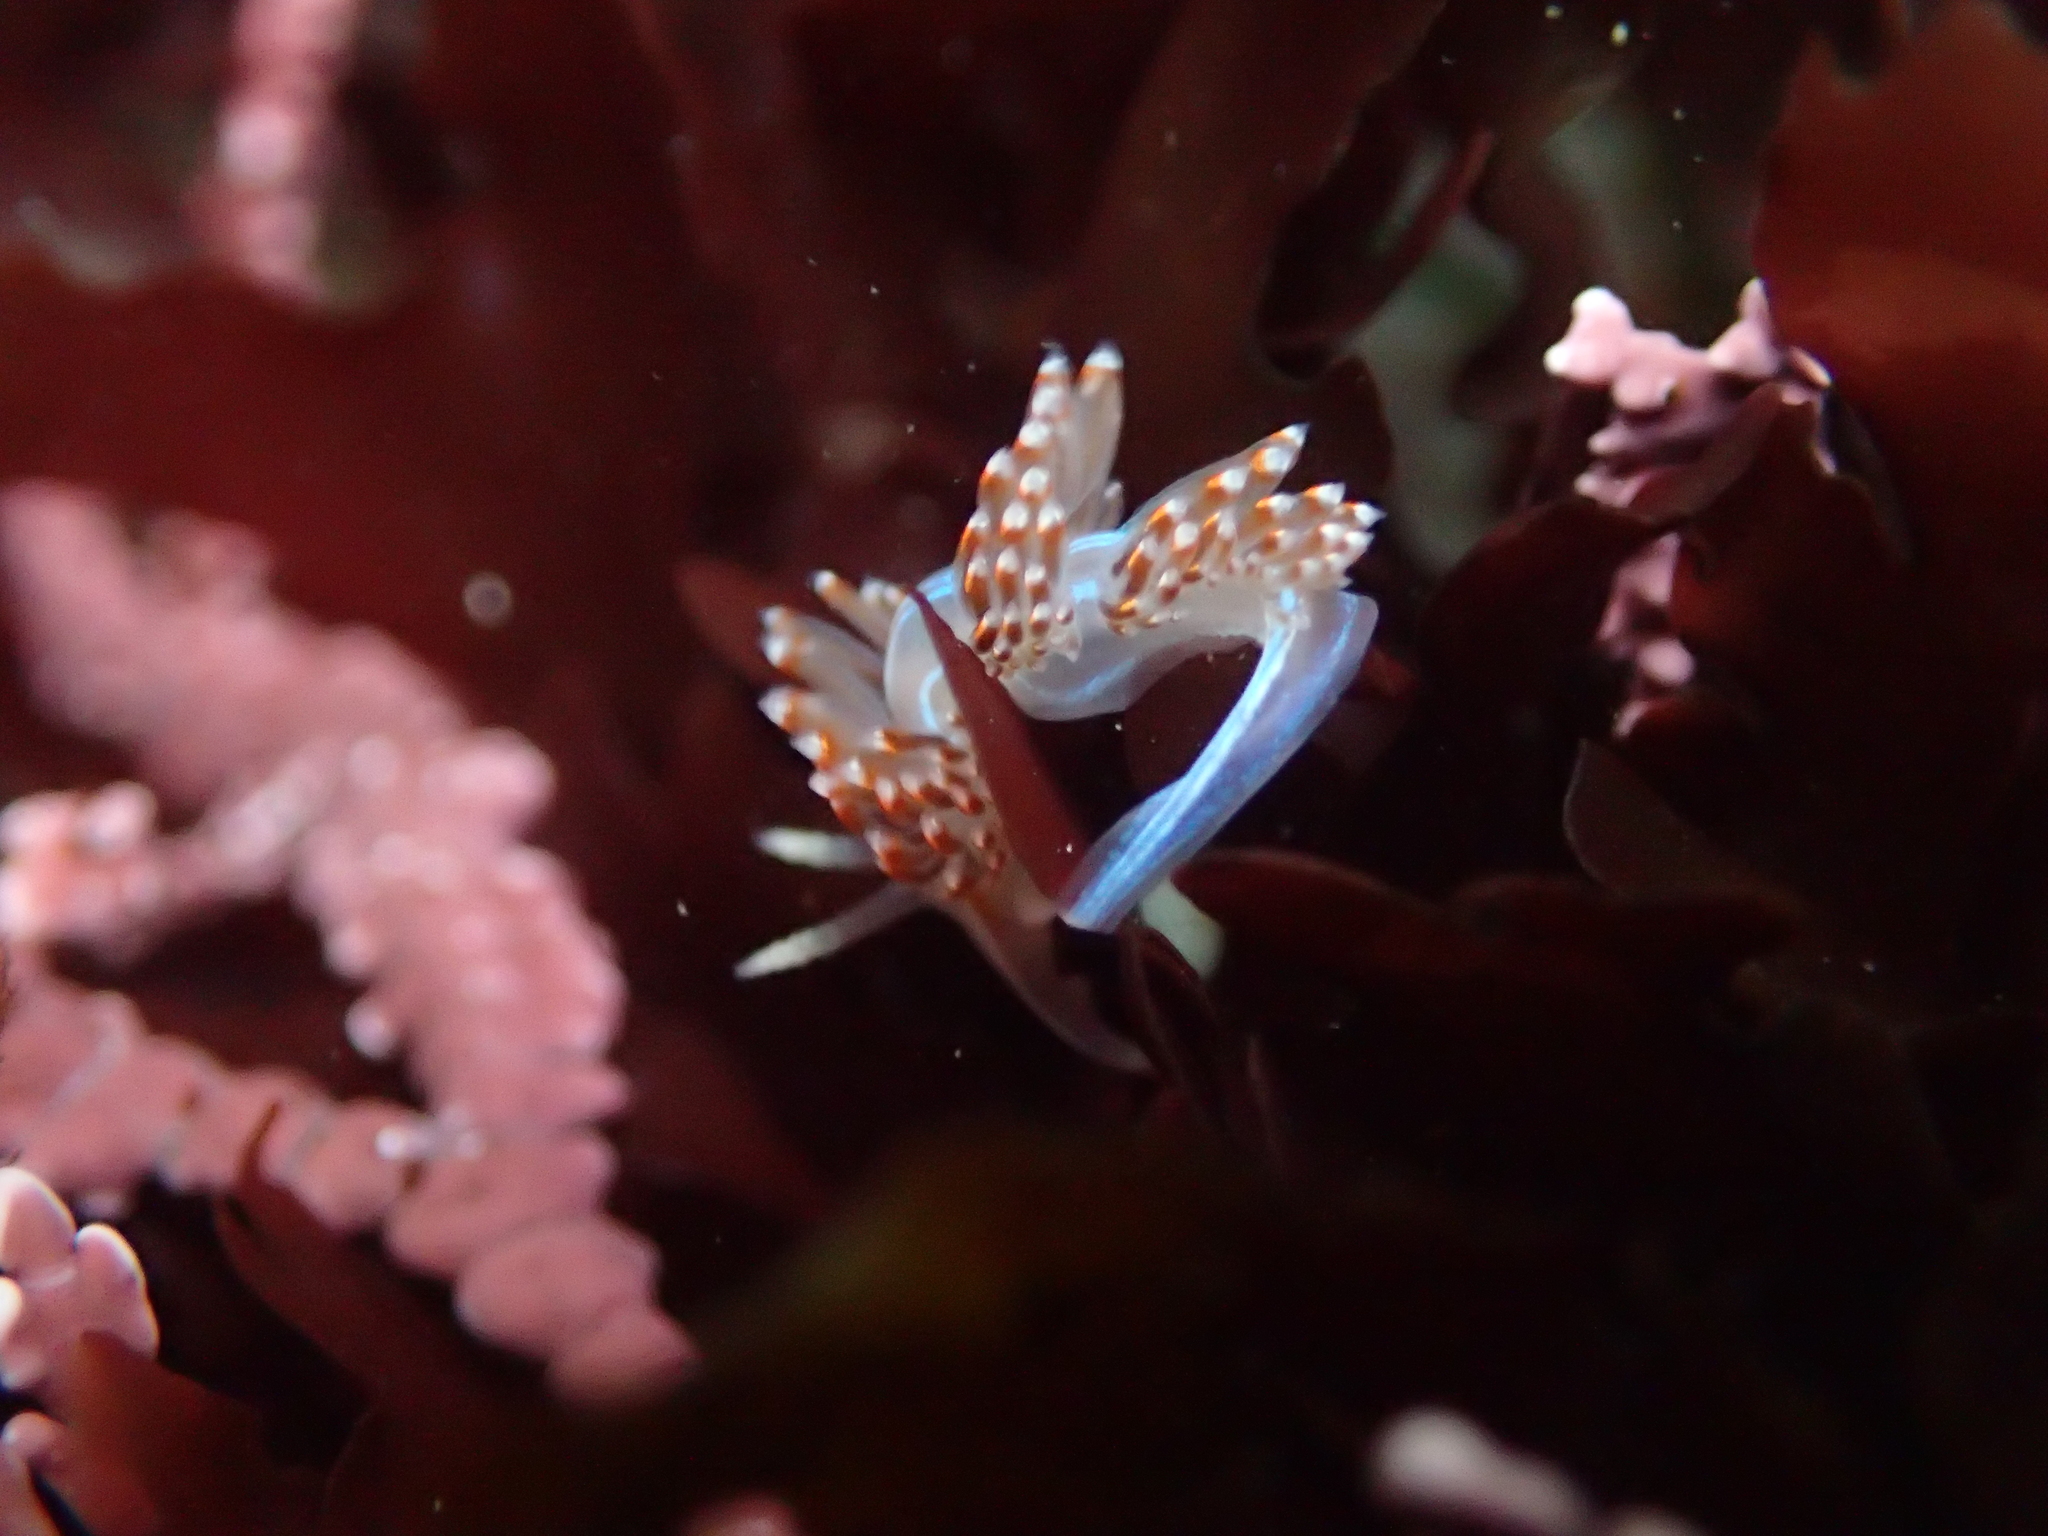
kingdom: Animalia
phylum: Mollusca
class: Gastropoda
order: Nudibranchia
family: Myrrhinidae
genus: Hermissenda
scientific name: Hermissenda opalescens
